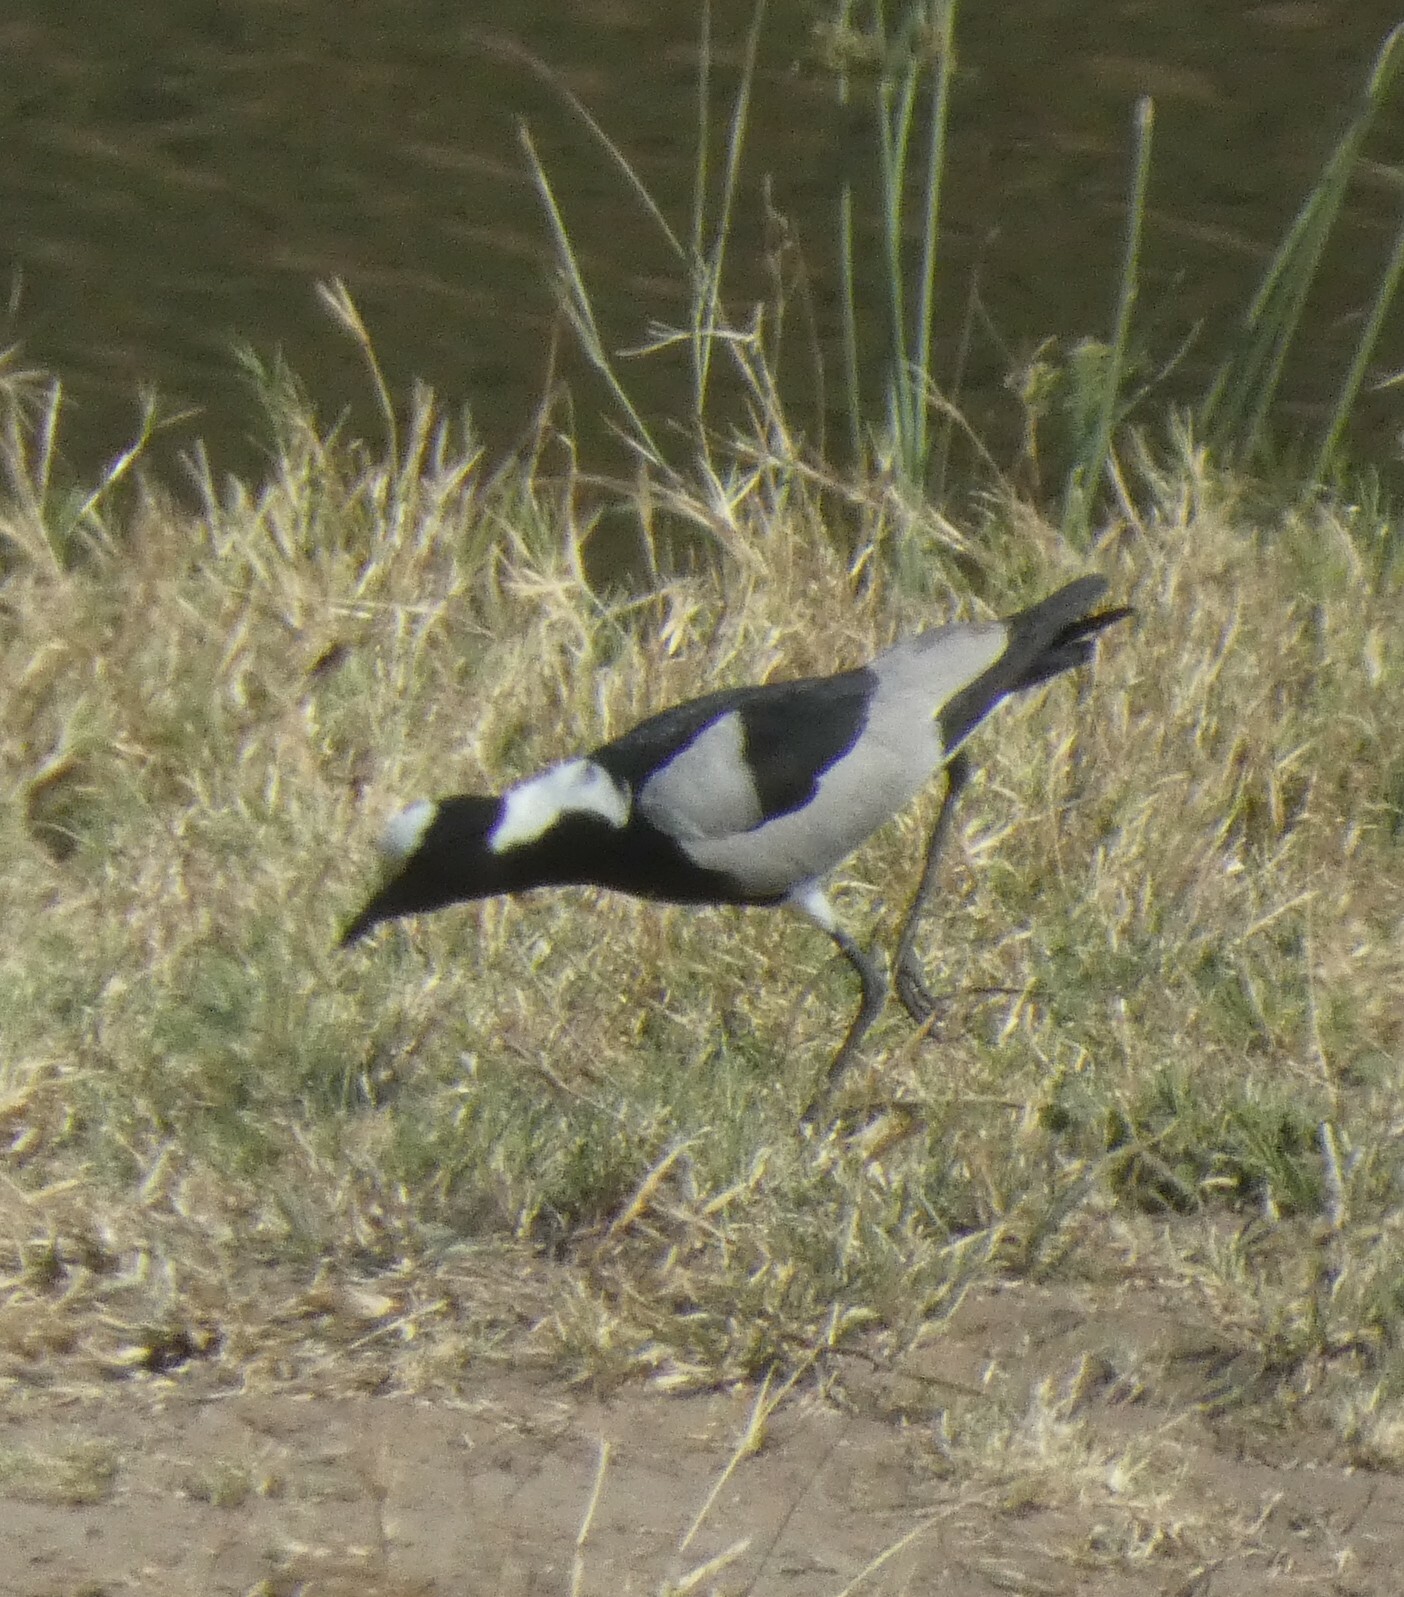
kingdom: Animalia
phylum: Chordata
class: Aves
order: Charadriiformes
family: Charadriidae
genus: Vanellus
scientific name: Vanellus armatus
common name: Blacksmith lapwing
